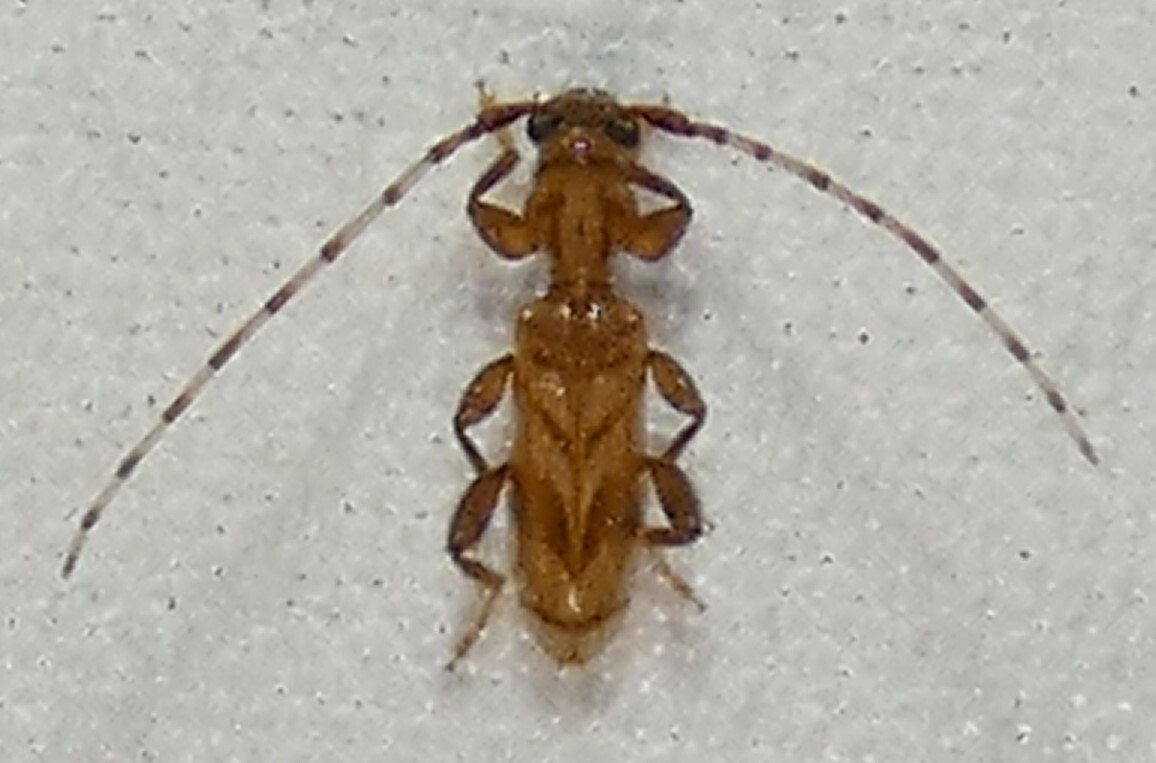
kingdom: Animalia
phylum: Arthropoda
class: Insecta
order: Coleoptera
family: Cerambycidae
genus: Obrium
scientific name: Obrium maculatum
